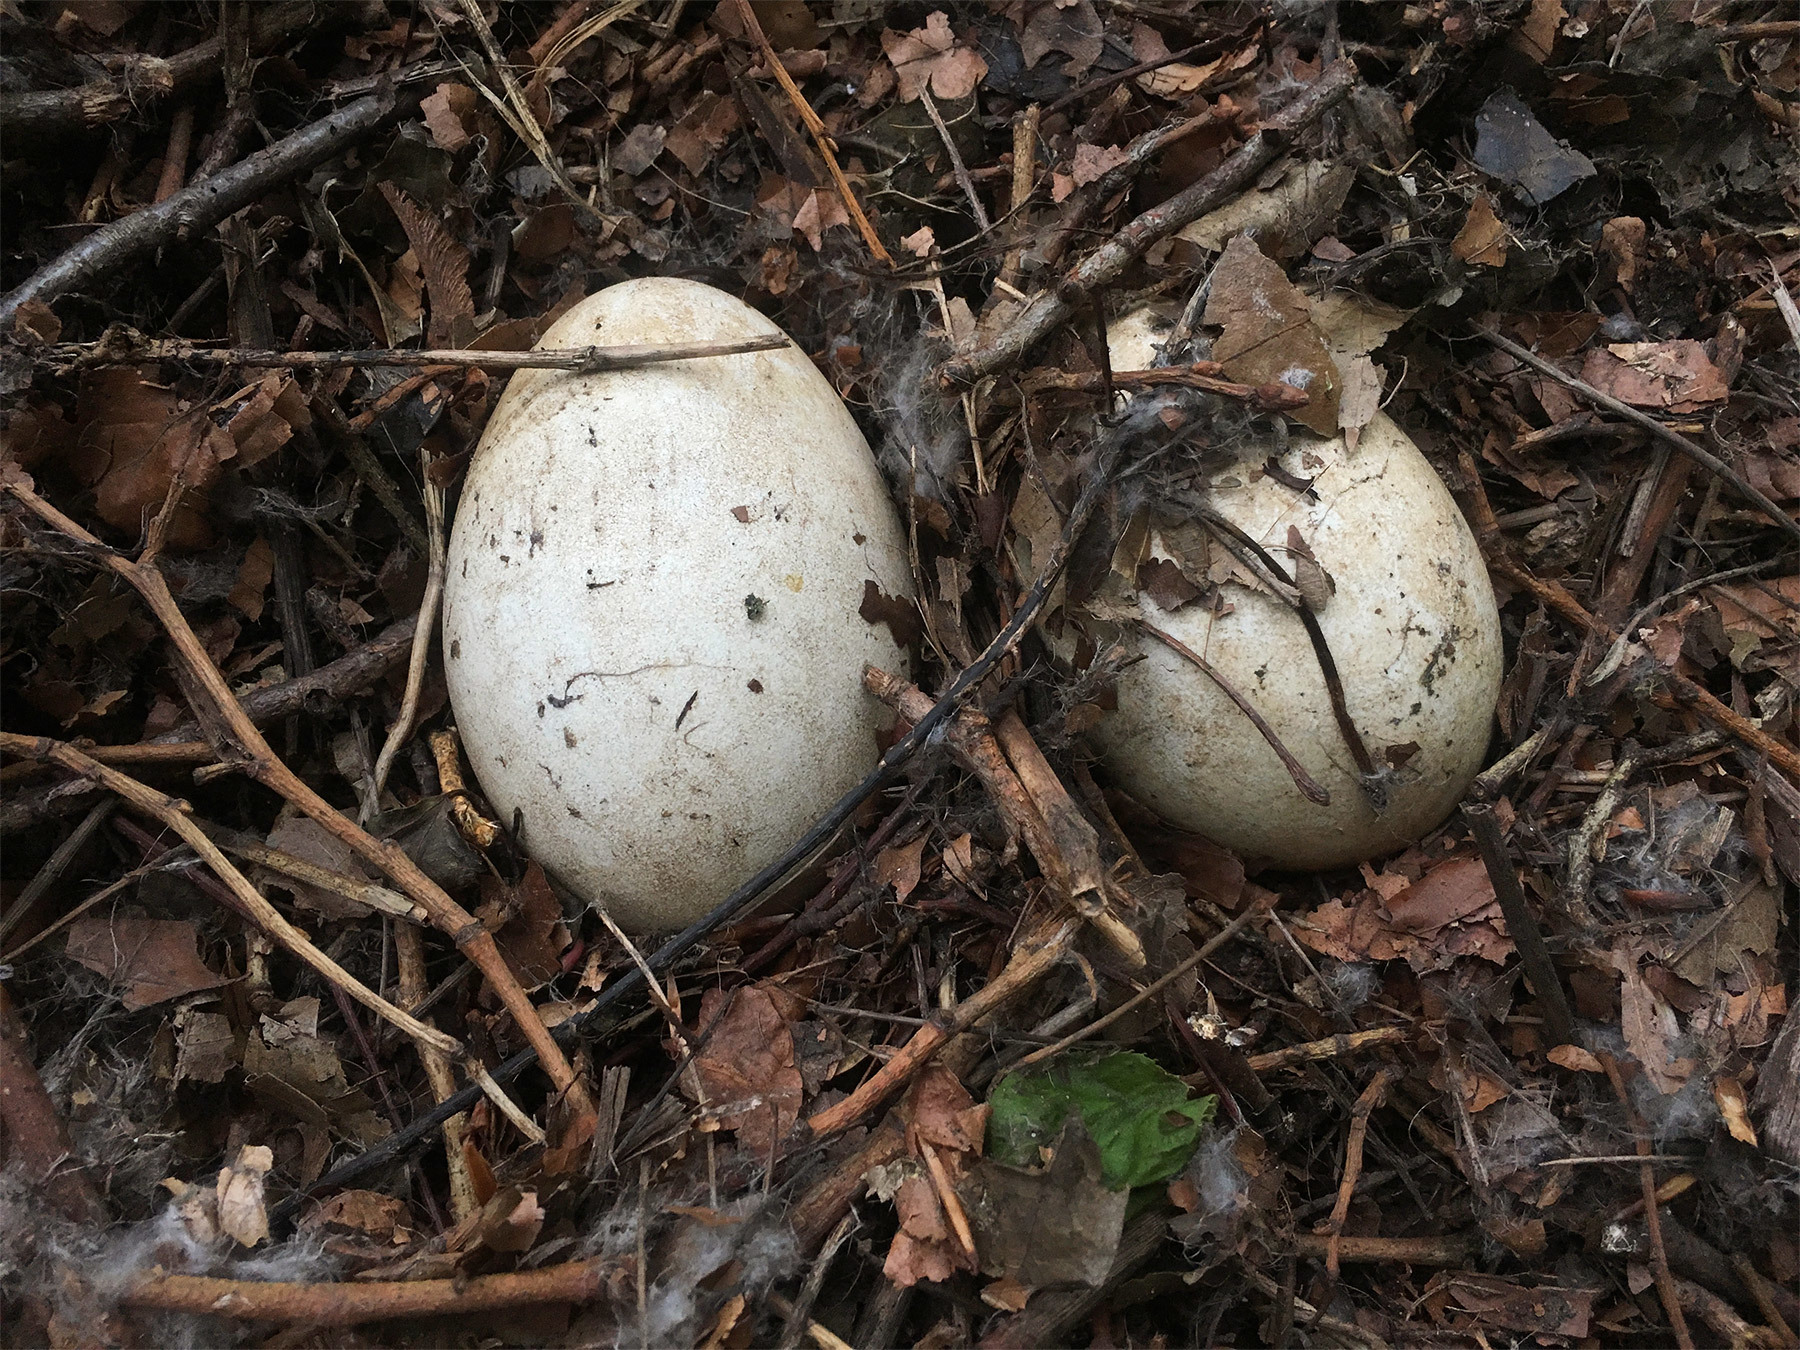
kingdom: Animalia
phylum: Chordata
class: Aves
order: Anseriformes
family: Anatidae
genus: Branta
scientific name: Branta canadensis
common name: Canada goose
